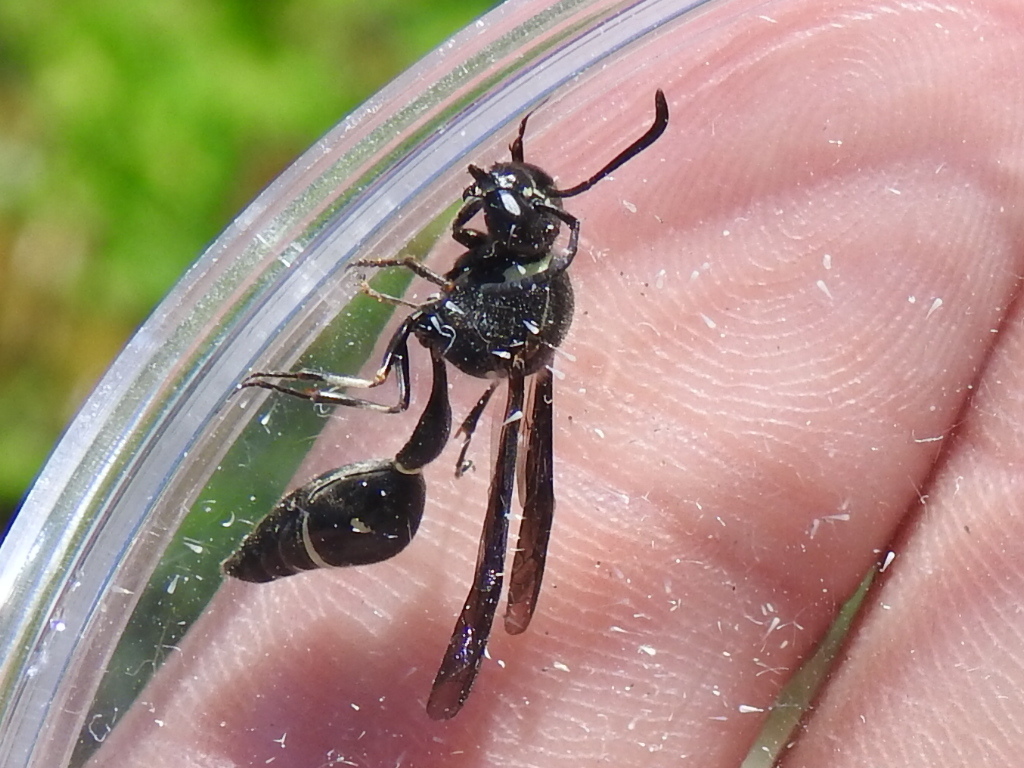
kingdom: Animalia
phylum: Arthropoda
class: Insecta
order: Hymenoptera
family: Vespidae
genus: Eumenes
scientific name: Eumenes fraternus
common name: Fraternal potter wasp
